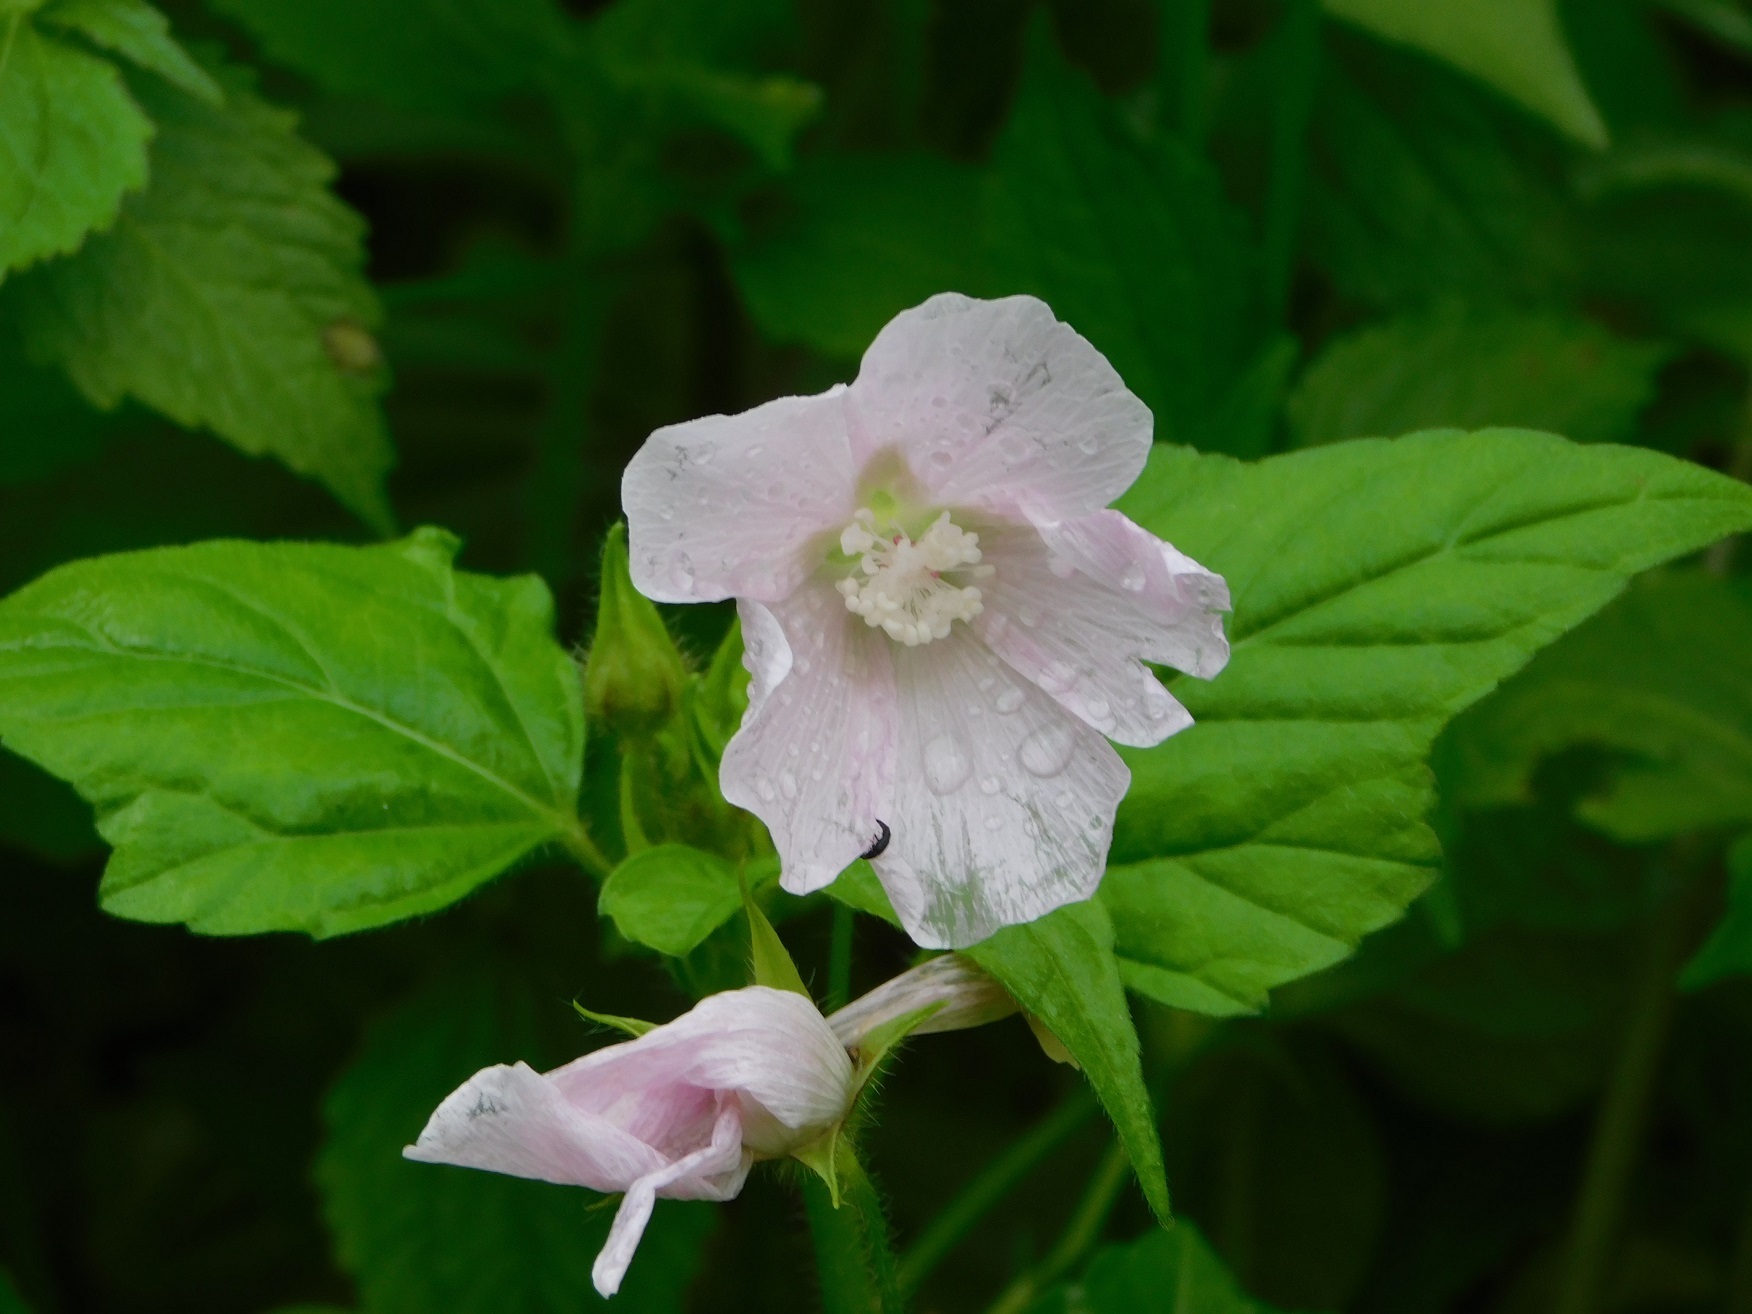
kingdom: Plantae
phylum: Tracheophyta
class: Magnoliopsida
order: Malvales
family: Malvaceae
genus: Anoda
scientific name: Anoda albiflora
